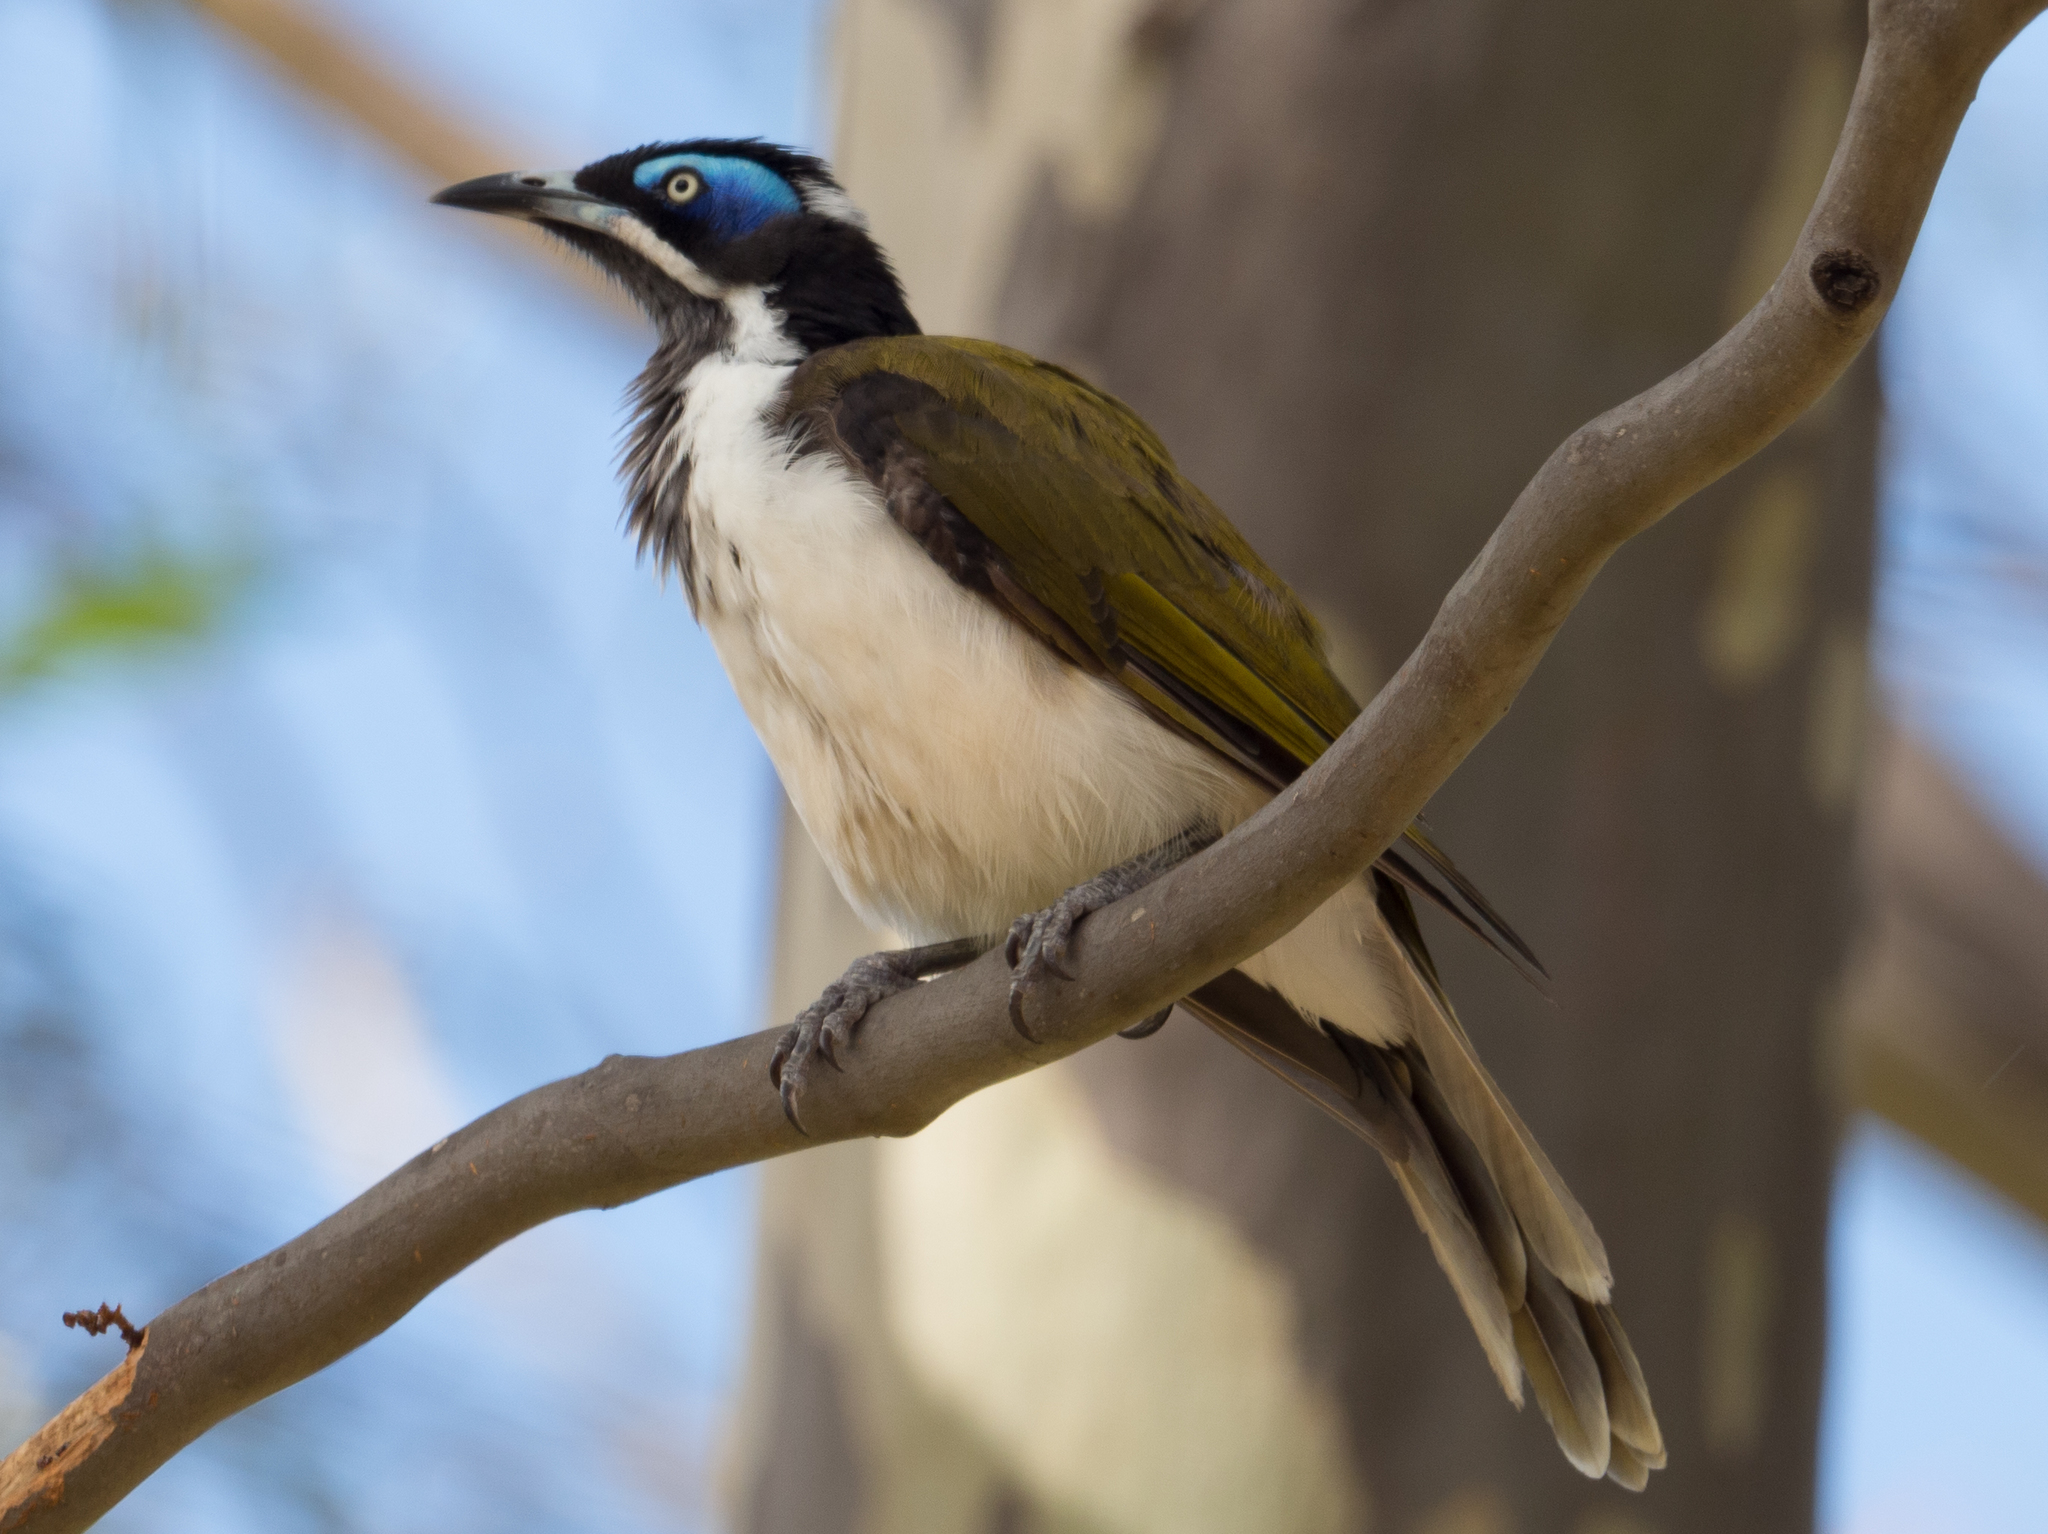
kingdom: Animalia
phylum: Chordata
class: Aves
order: Passeriformes
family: Meliphagidae
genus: Entomyzon
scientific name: Entomyzon cyanotis
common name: Blue-faced honeyeater
